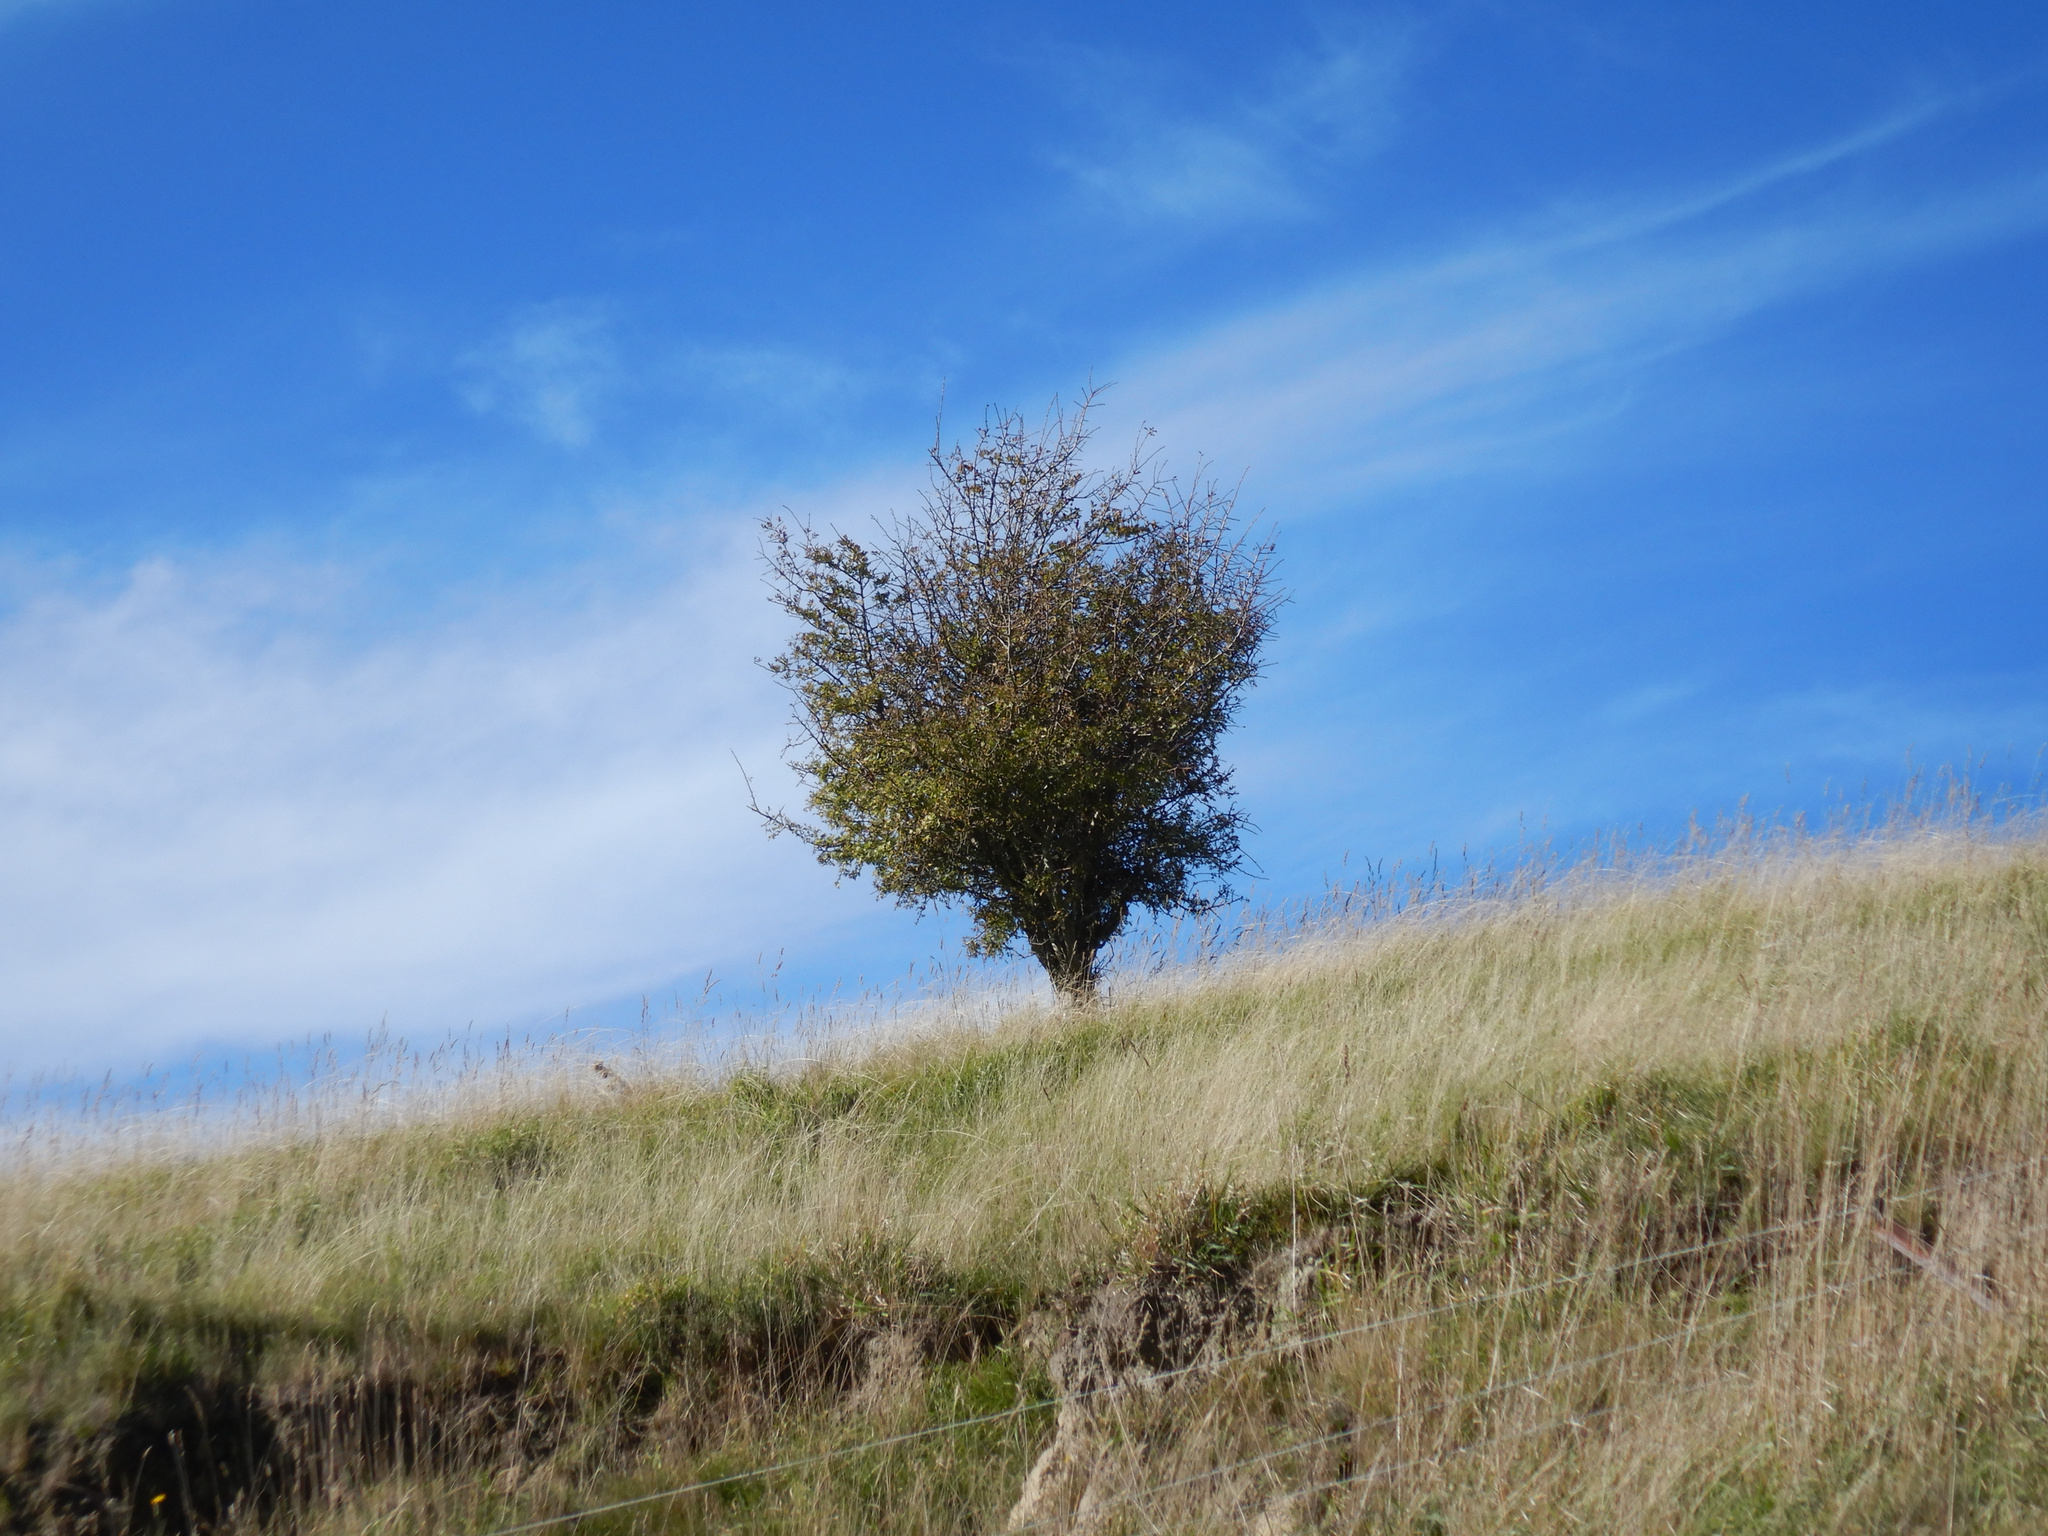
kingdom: Plantae
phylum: Tracheophyta
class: Magnoliopsida
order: Rosales
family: Rosaceae
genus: Crataegus
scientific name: Crataegus monogyna
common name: Hawthorn
